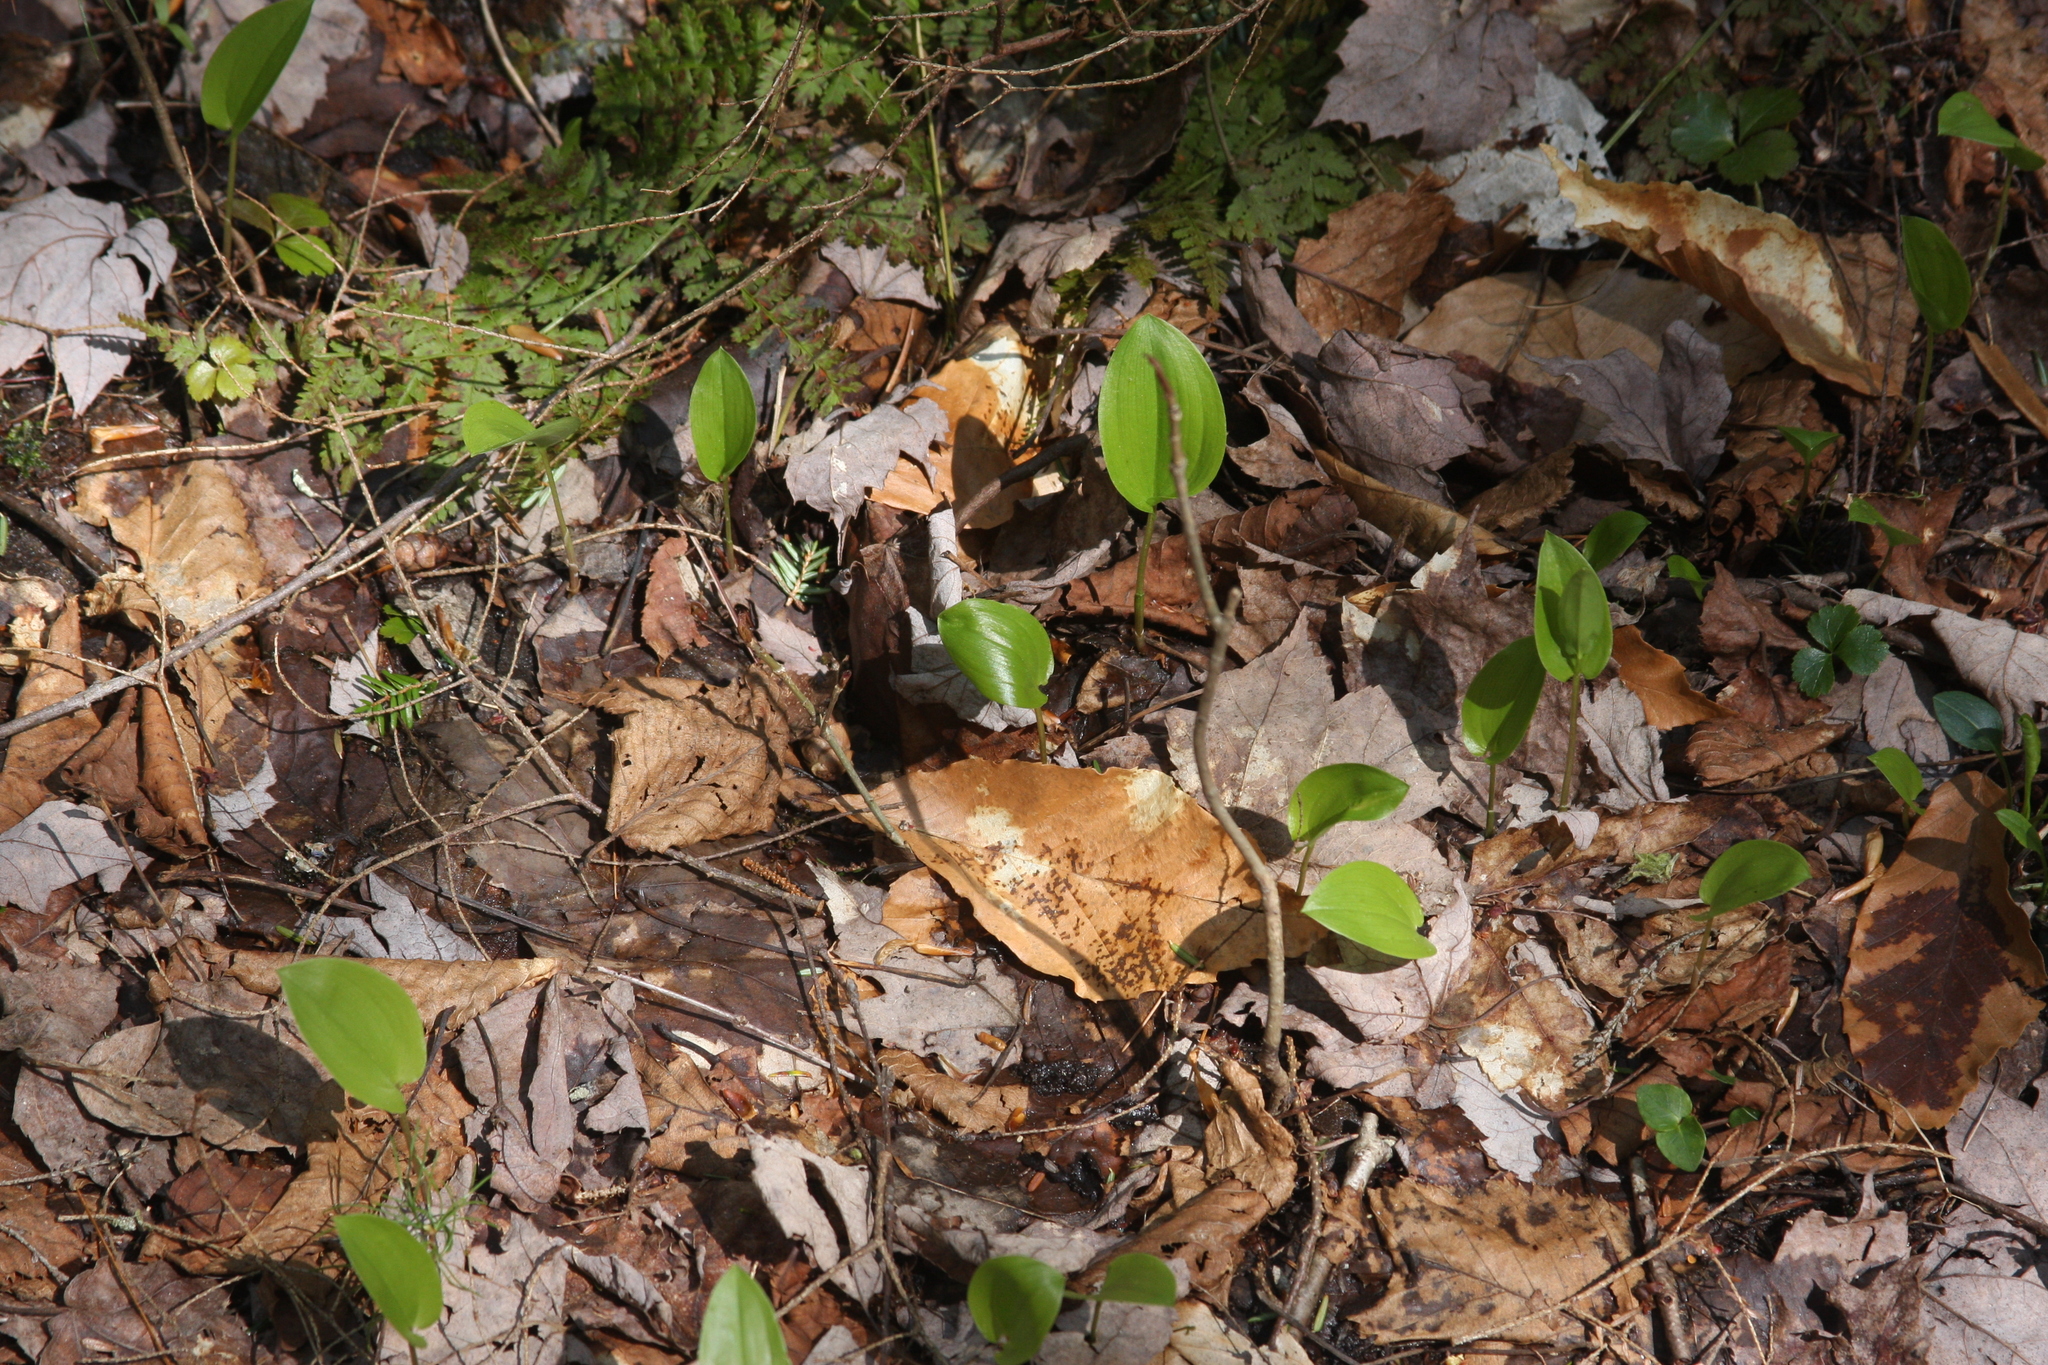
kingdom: Plantae
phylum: Tracheophyta
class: Liliopsida
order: Asparagales
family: Asparagaceae
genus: Maianthemum
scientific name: Maianthemum canadense
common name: False lily-of-the-valley
